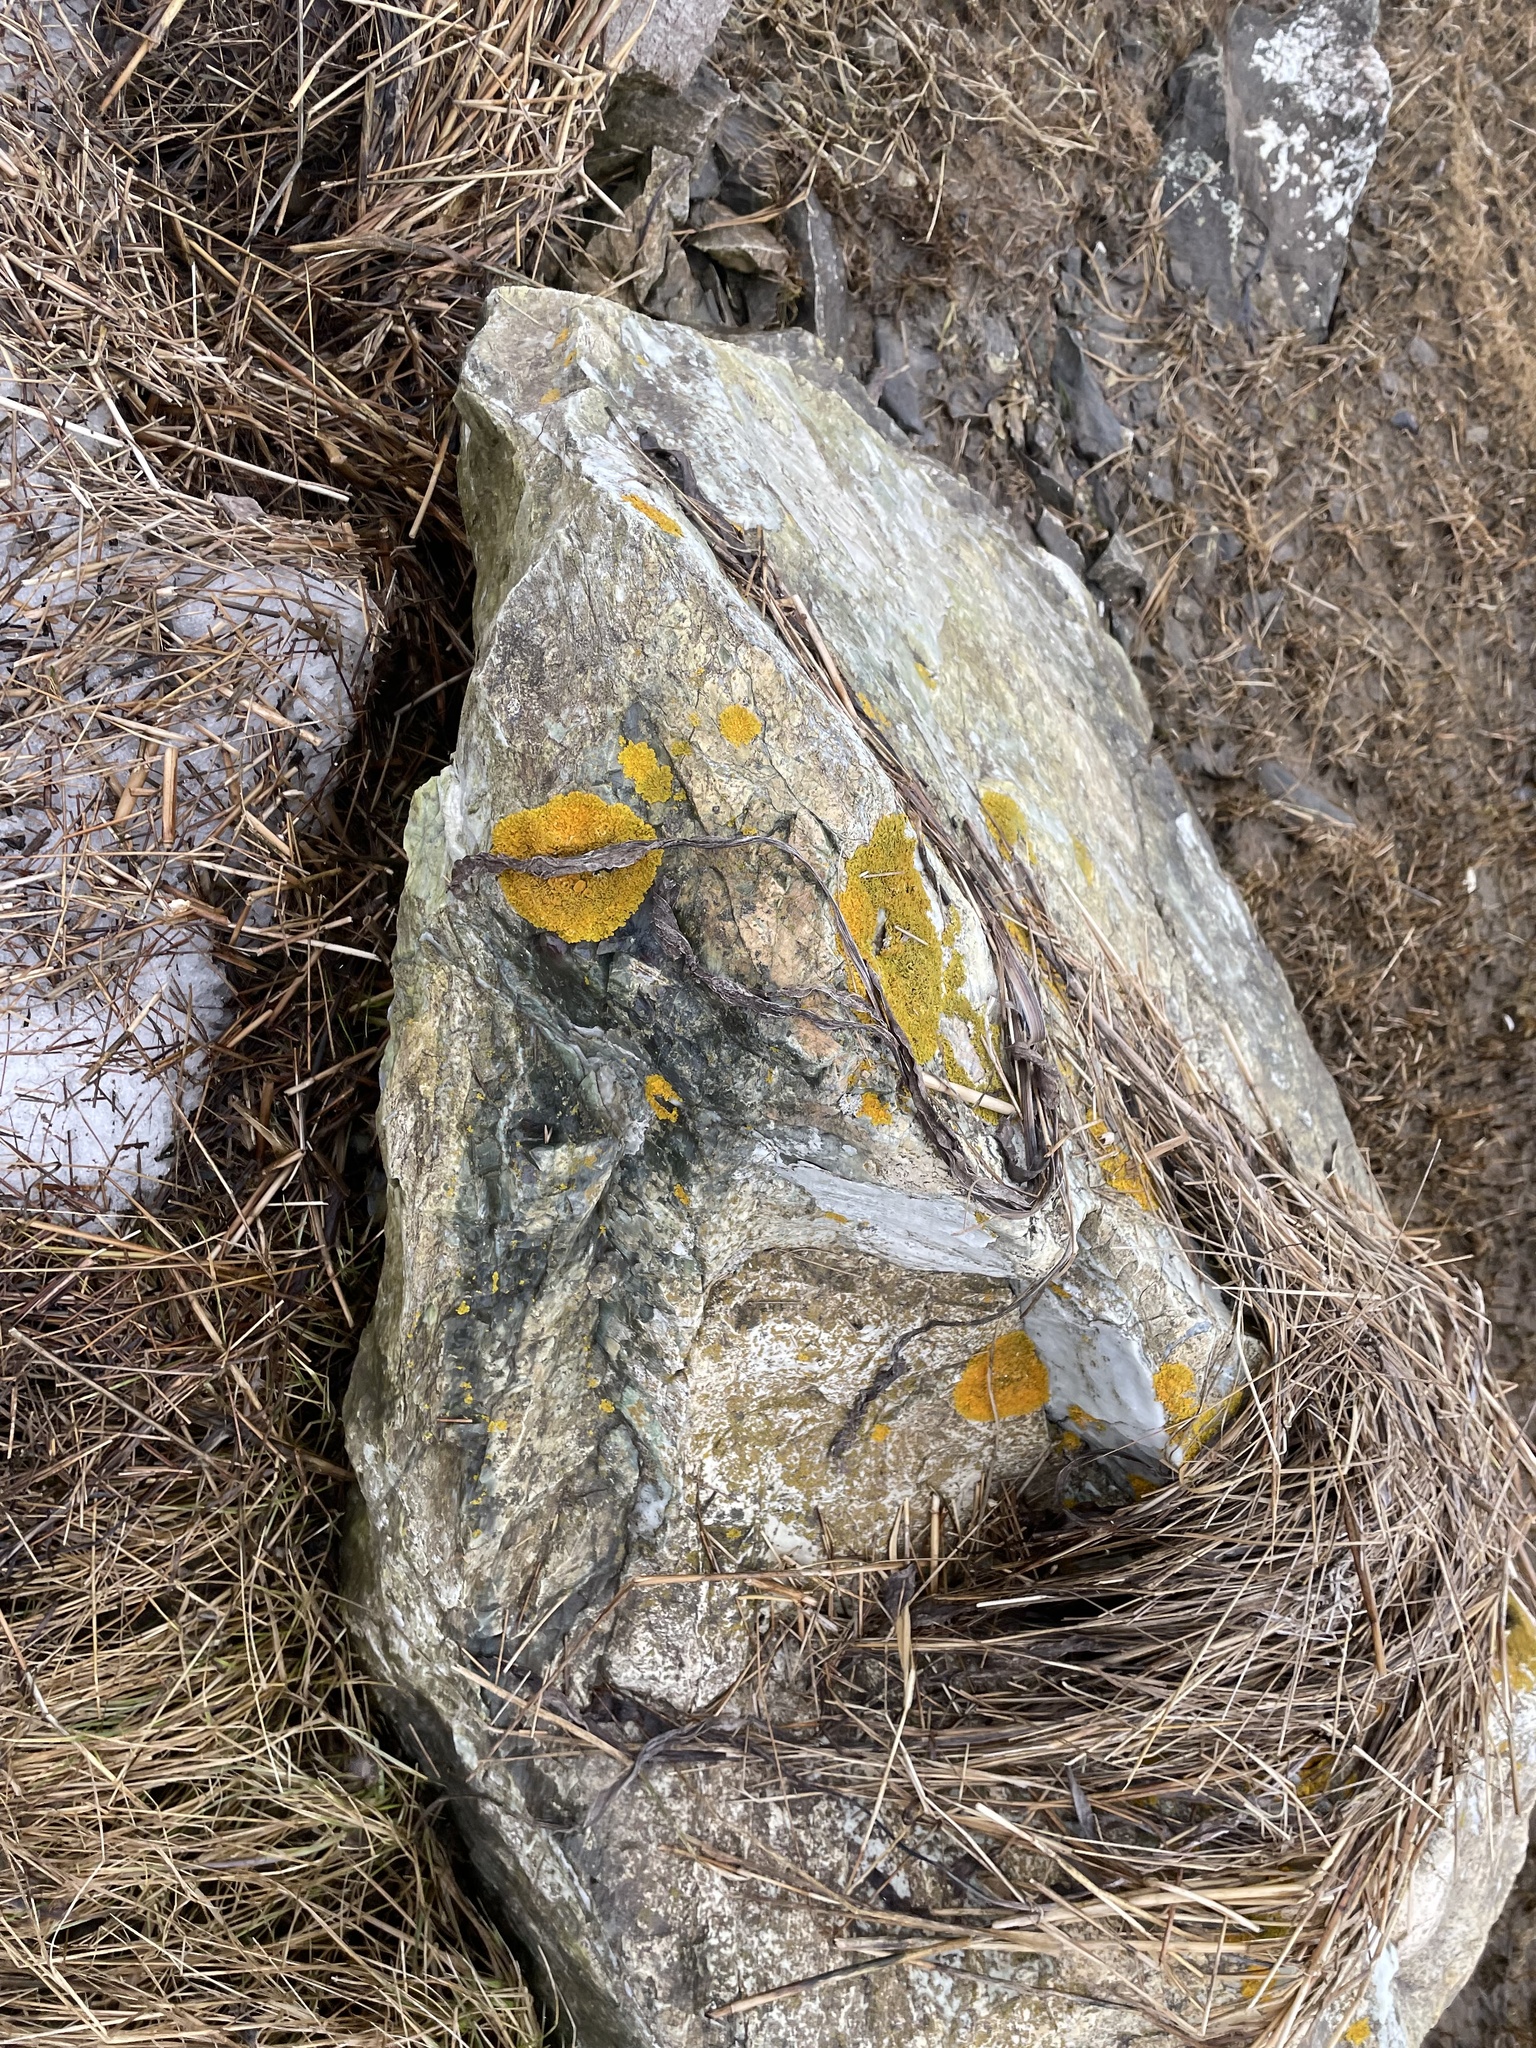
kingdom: Fungi
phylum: Ascomycota
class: Lecanoromycetes
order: Teloschistales
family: Teloschistaceae
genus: Xanthoria
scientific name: Xanthoria parietina
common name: Common orange lichen
